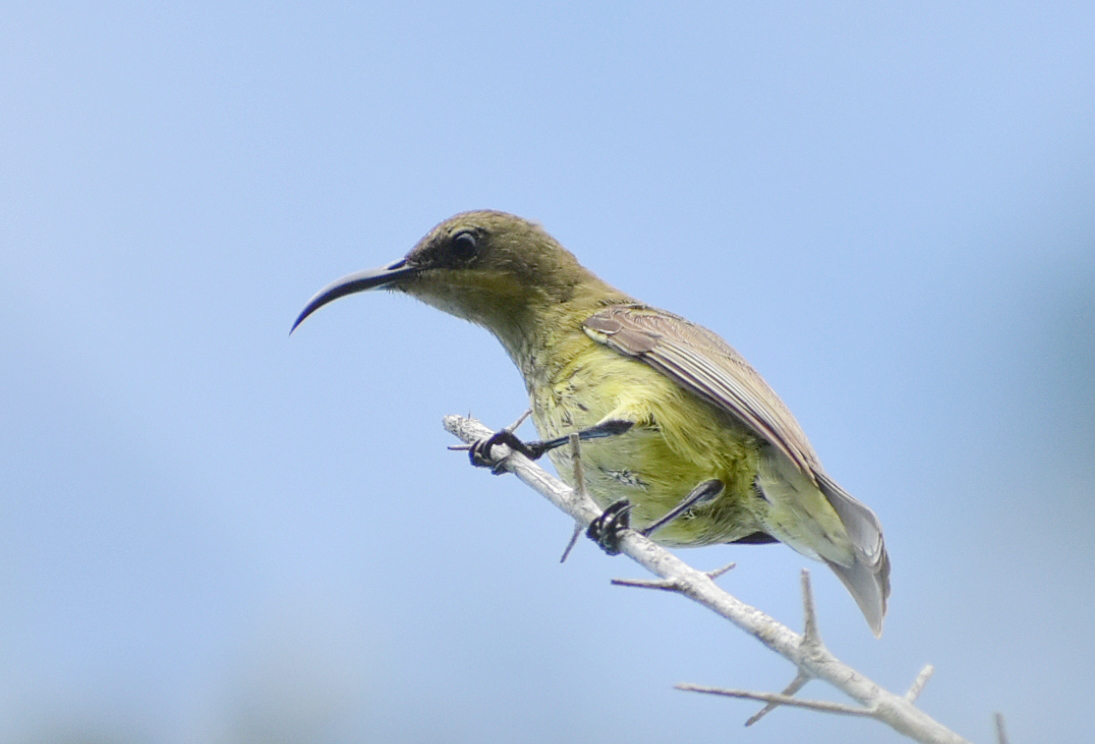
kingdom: Animalia
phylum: Chordata
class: Aves
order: Passeriformes
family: Nectariniidae
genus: Cyanomitra
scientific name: Cyanomitra olivacea
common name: Olive sunbird
